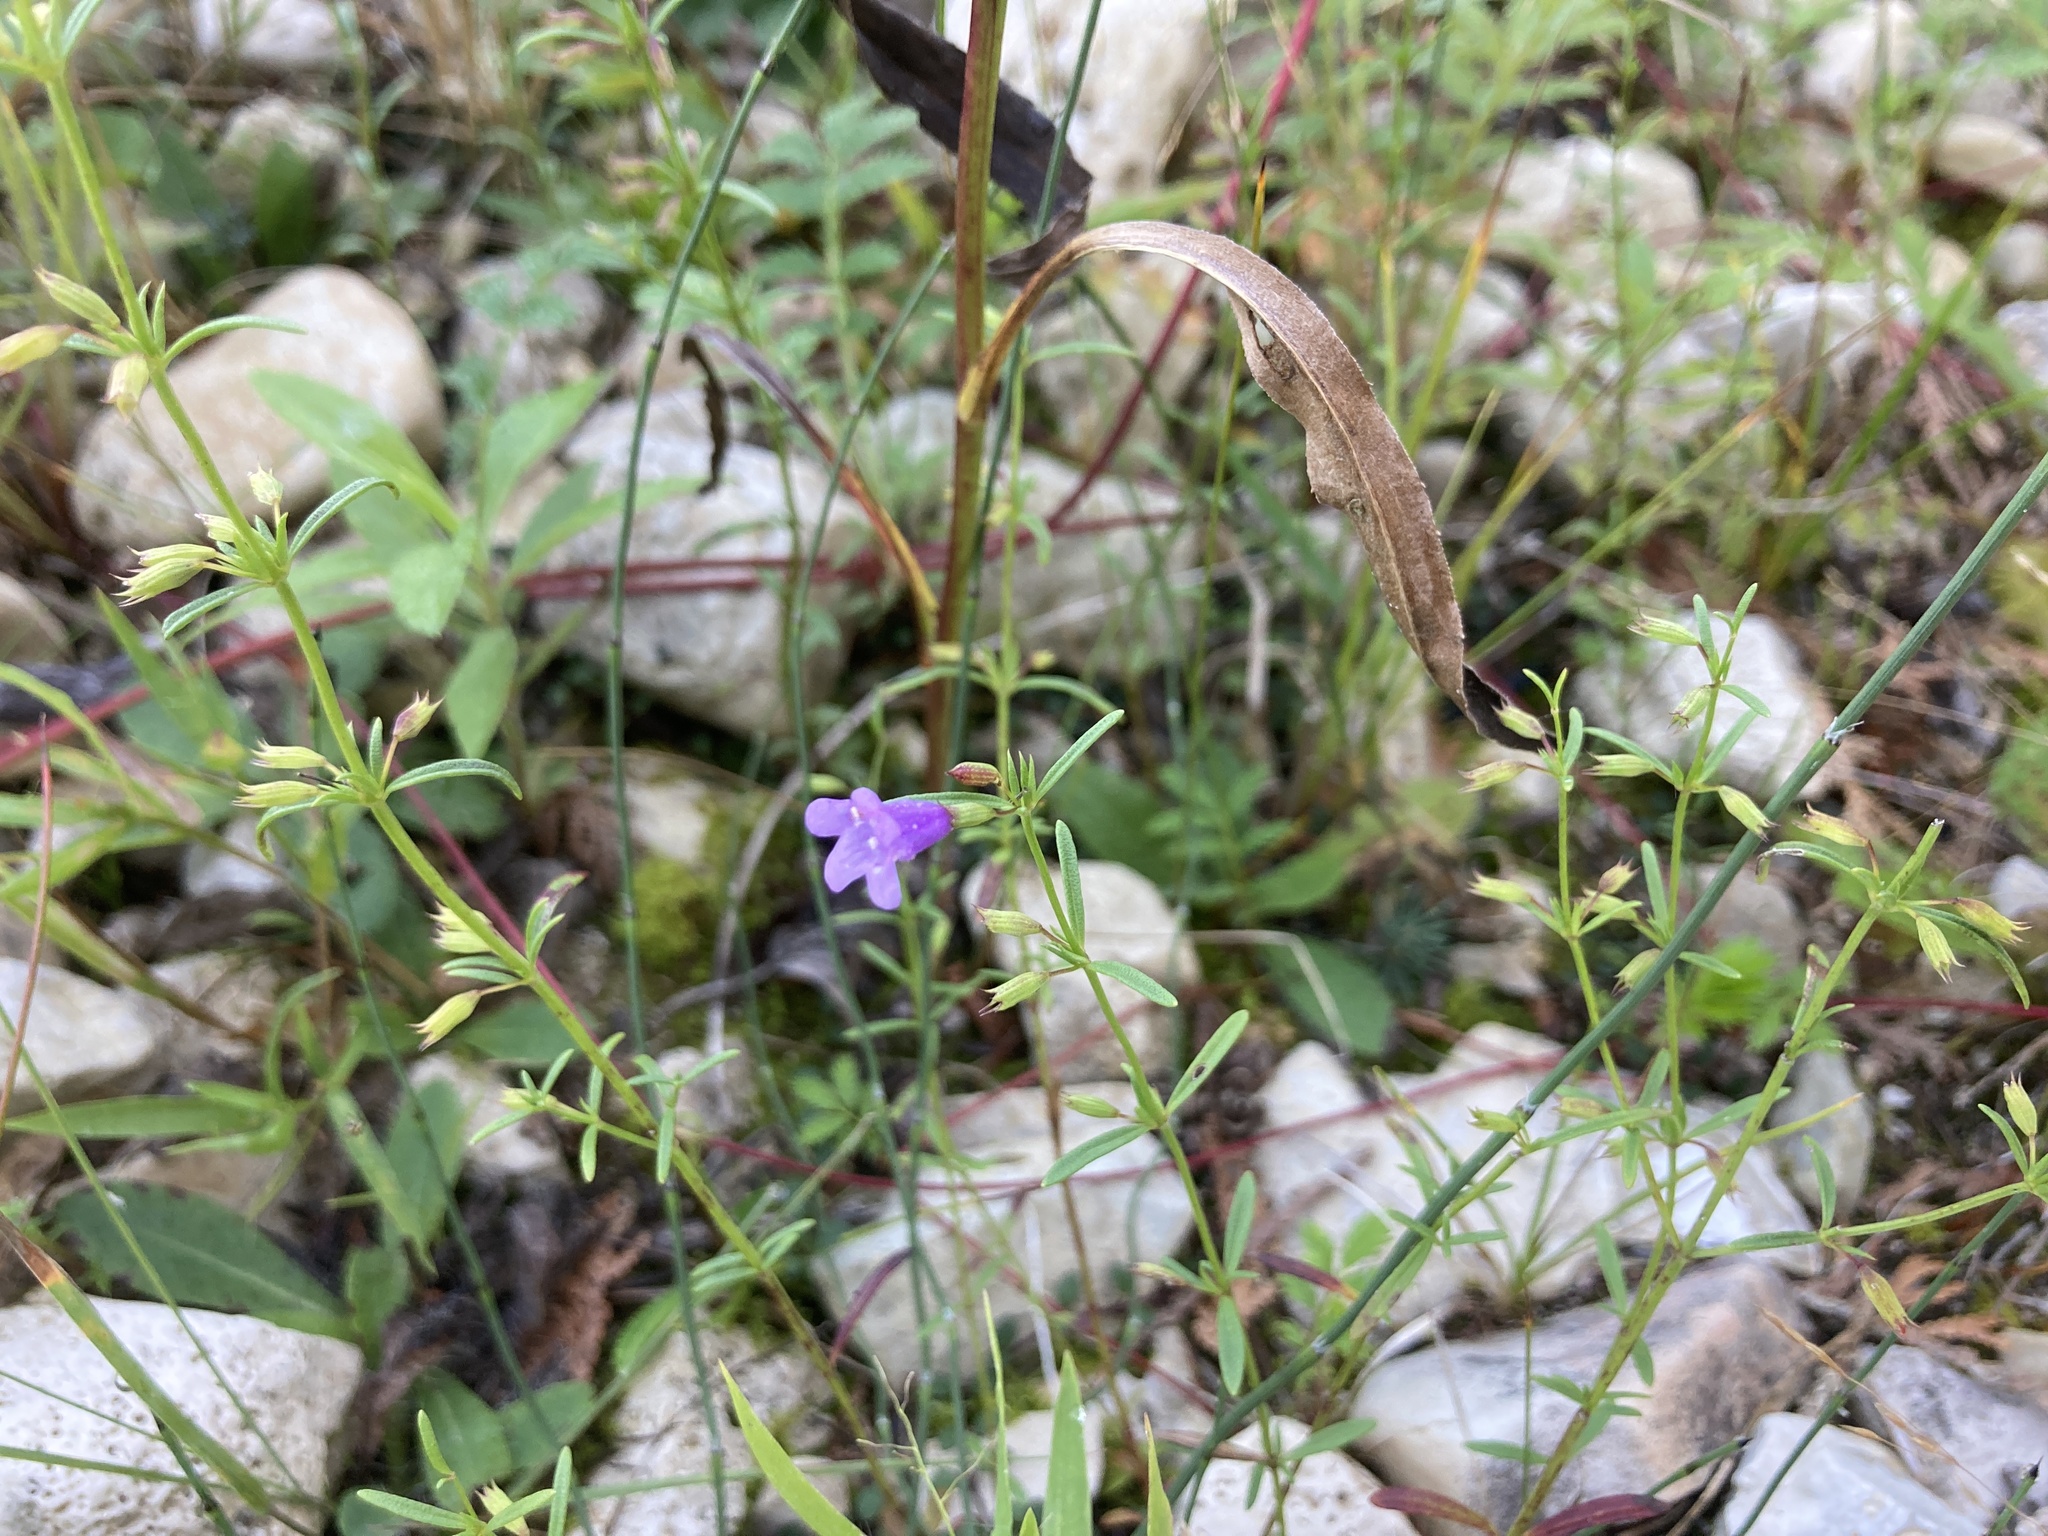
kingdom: Plantae
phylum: Tracheophyta
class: Magnoliopsida
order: Lamiales
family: Lamiaceae
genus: Clinopodium
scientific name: Clinopodium arkansanum
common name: Limestone calamint
